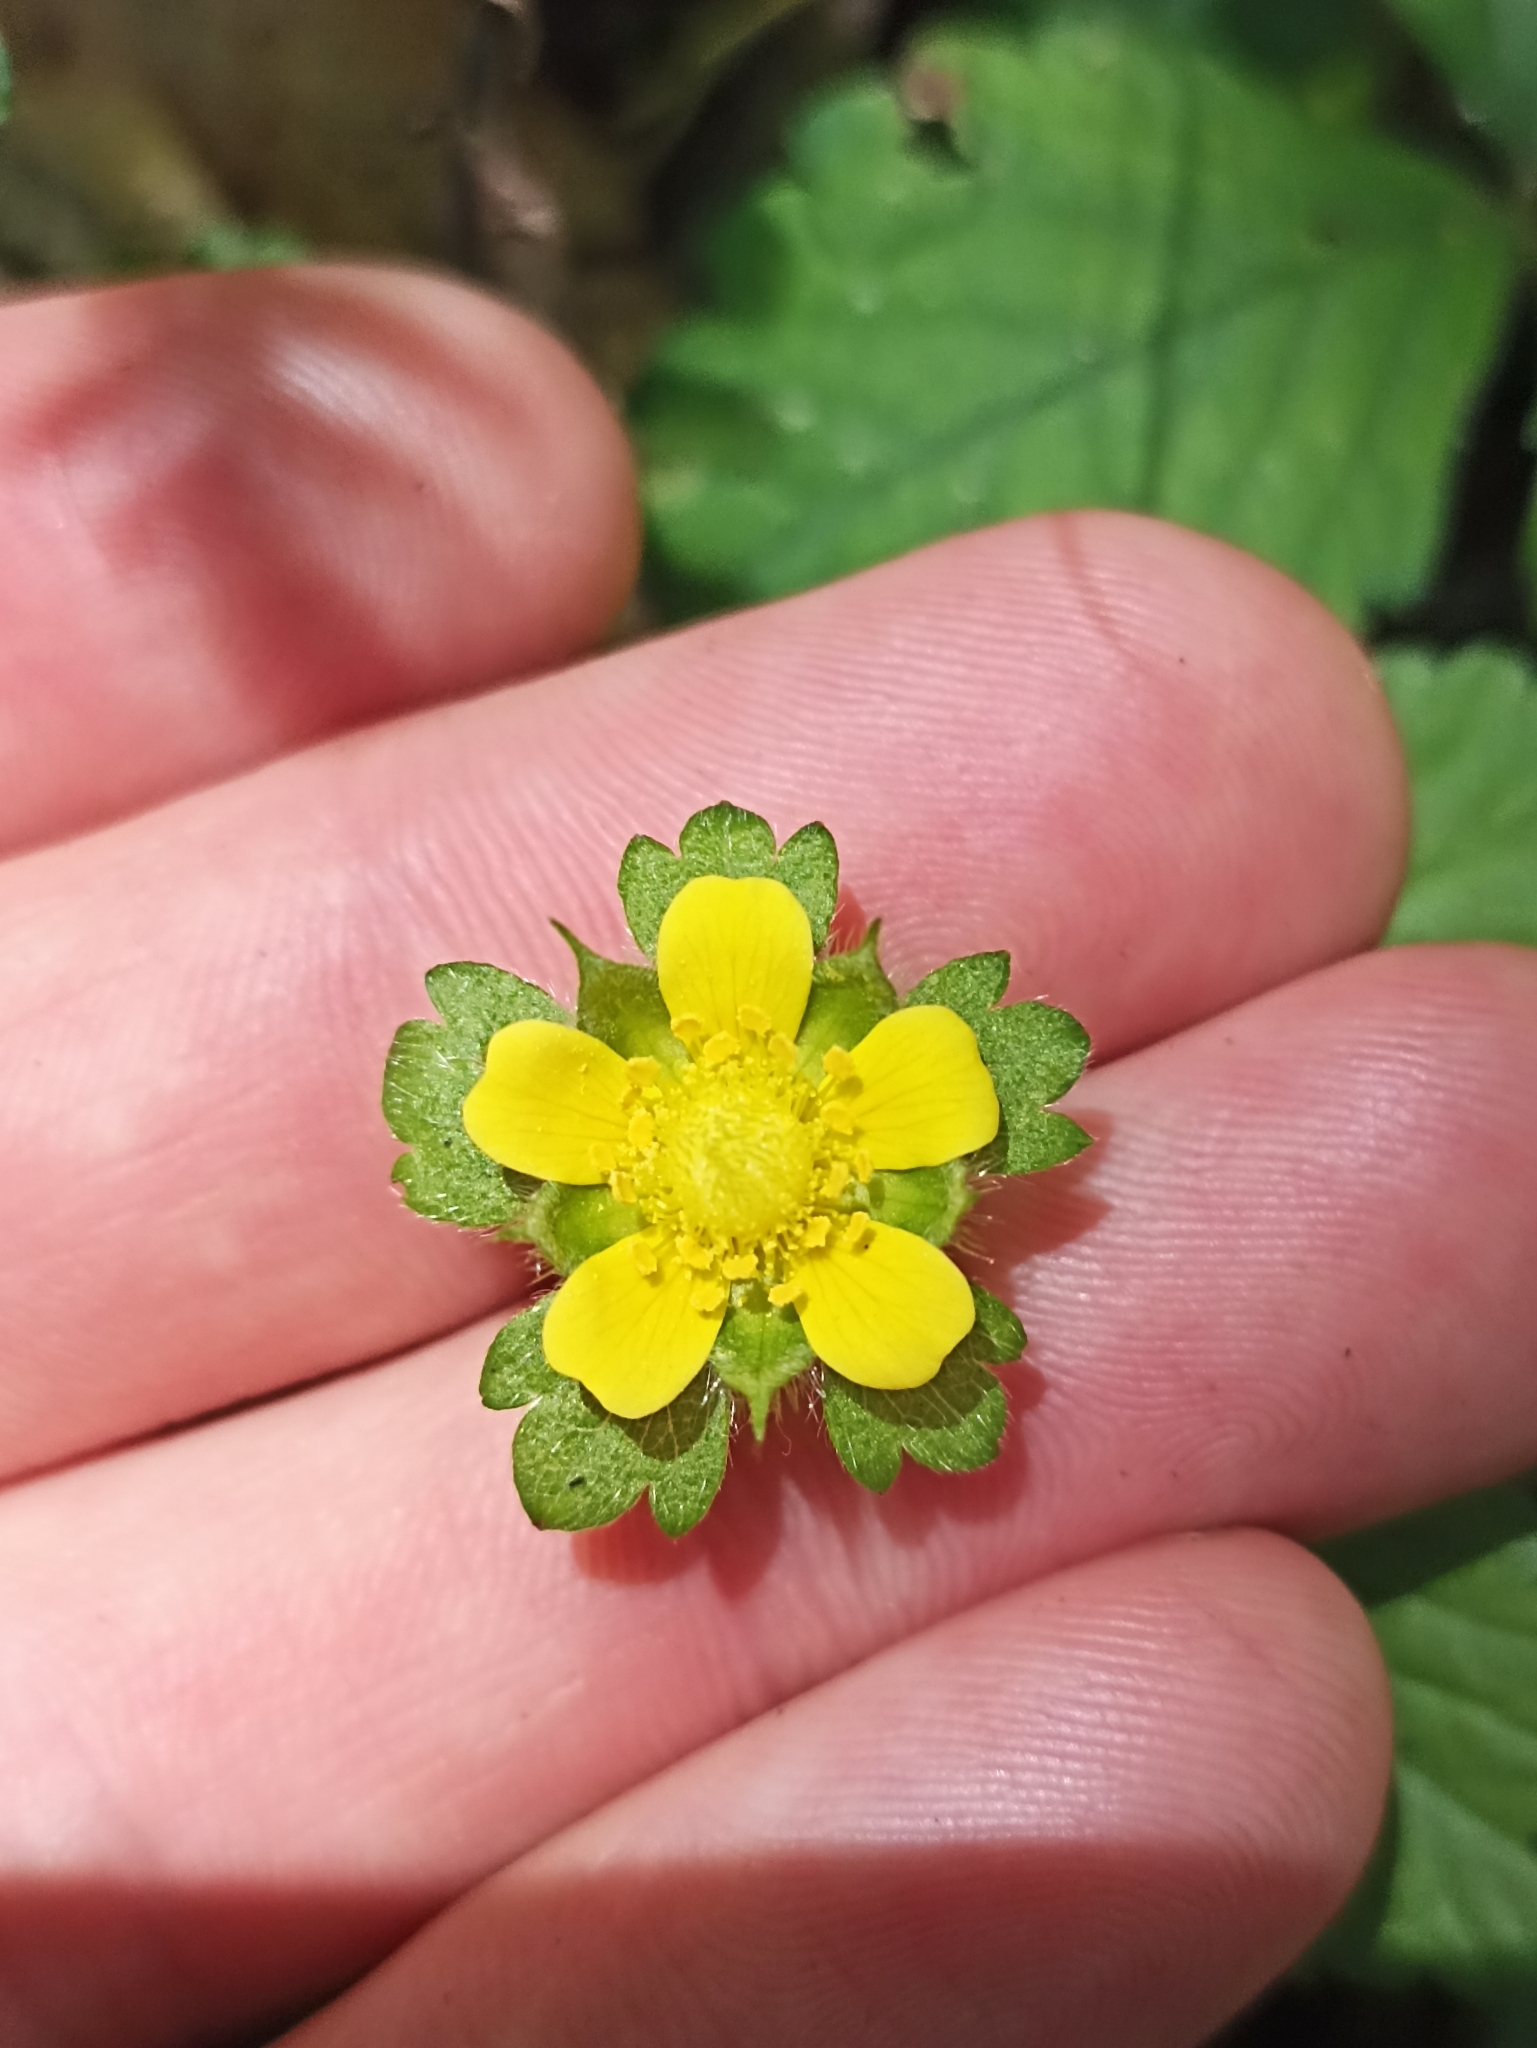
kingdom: Plantae
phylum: Tracheophyta
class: Magnoliopsida
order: Rosales
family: Rosaceae
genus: Potentilla
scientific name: Potentilla indica
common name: Yellow-flowered strawberry
